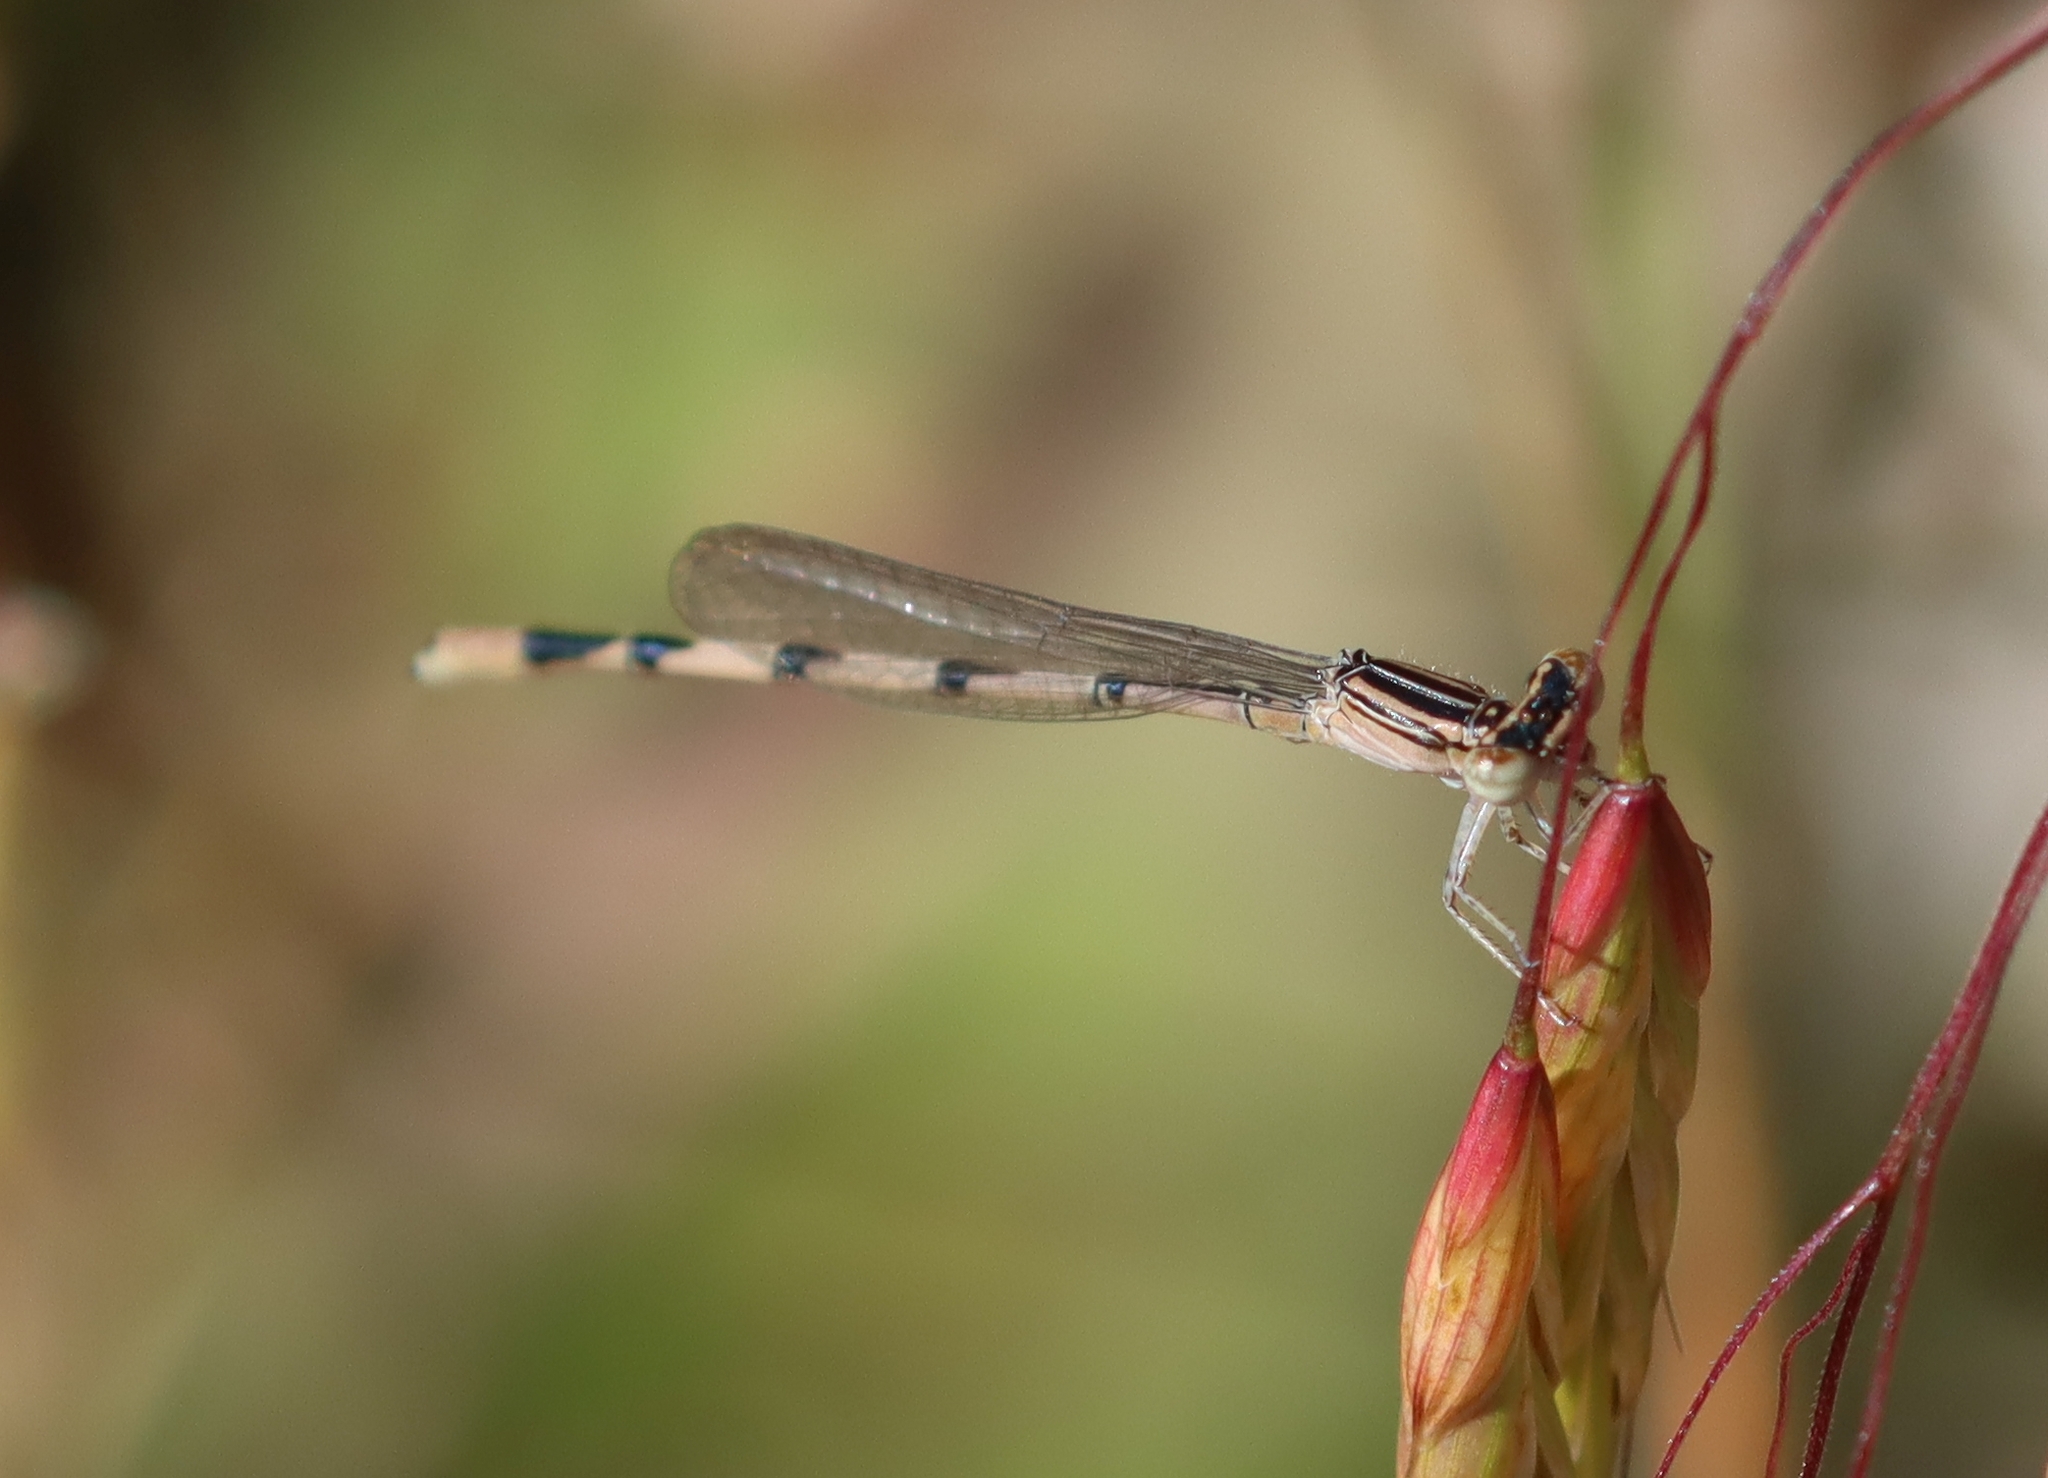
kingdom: Animalia
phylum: Arthropoda
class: Insecta
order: Odonata
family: Coenagrionidae
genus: Enallagma
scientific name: Enallagma basidens
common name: Double-striped bluet
